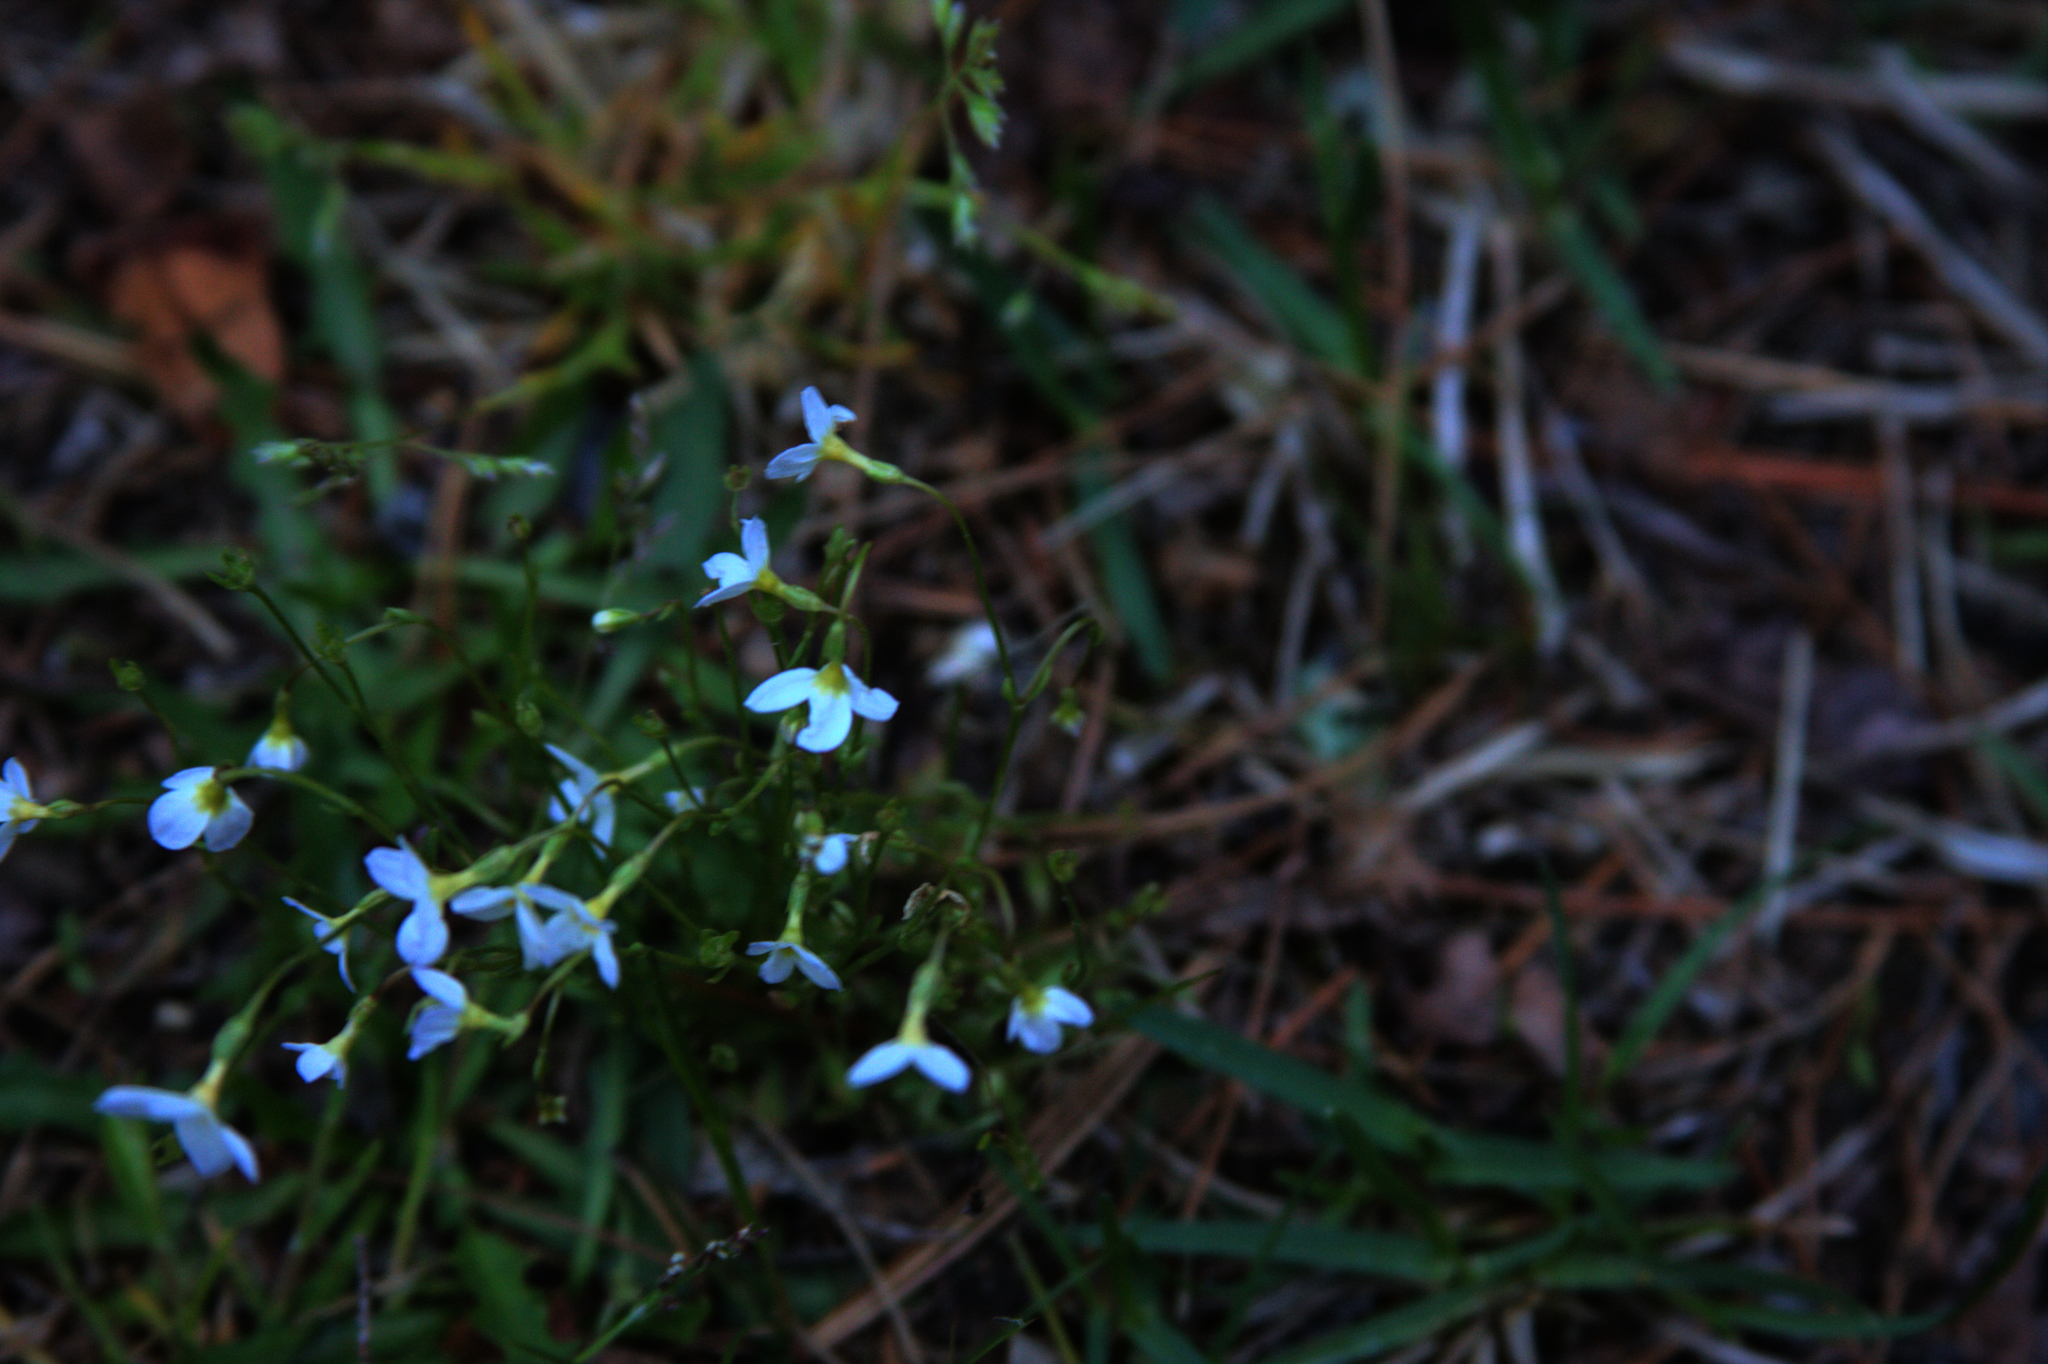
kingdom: Plantae
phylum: Tracheophyta
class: Magnoliopsida
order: Gentianales
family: Rubiaceae
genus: Houstonia
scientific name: Houstonia caerulea
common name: Bluets
